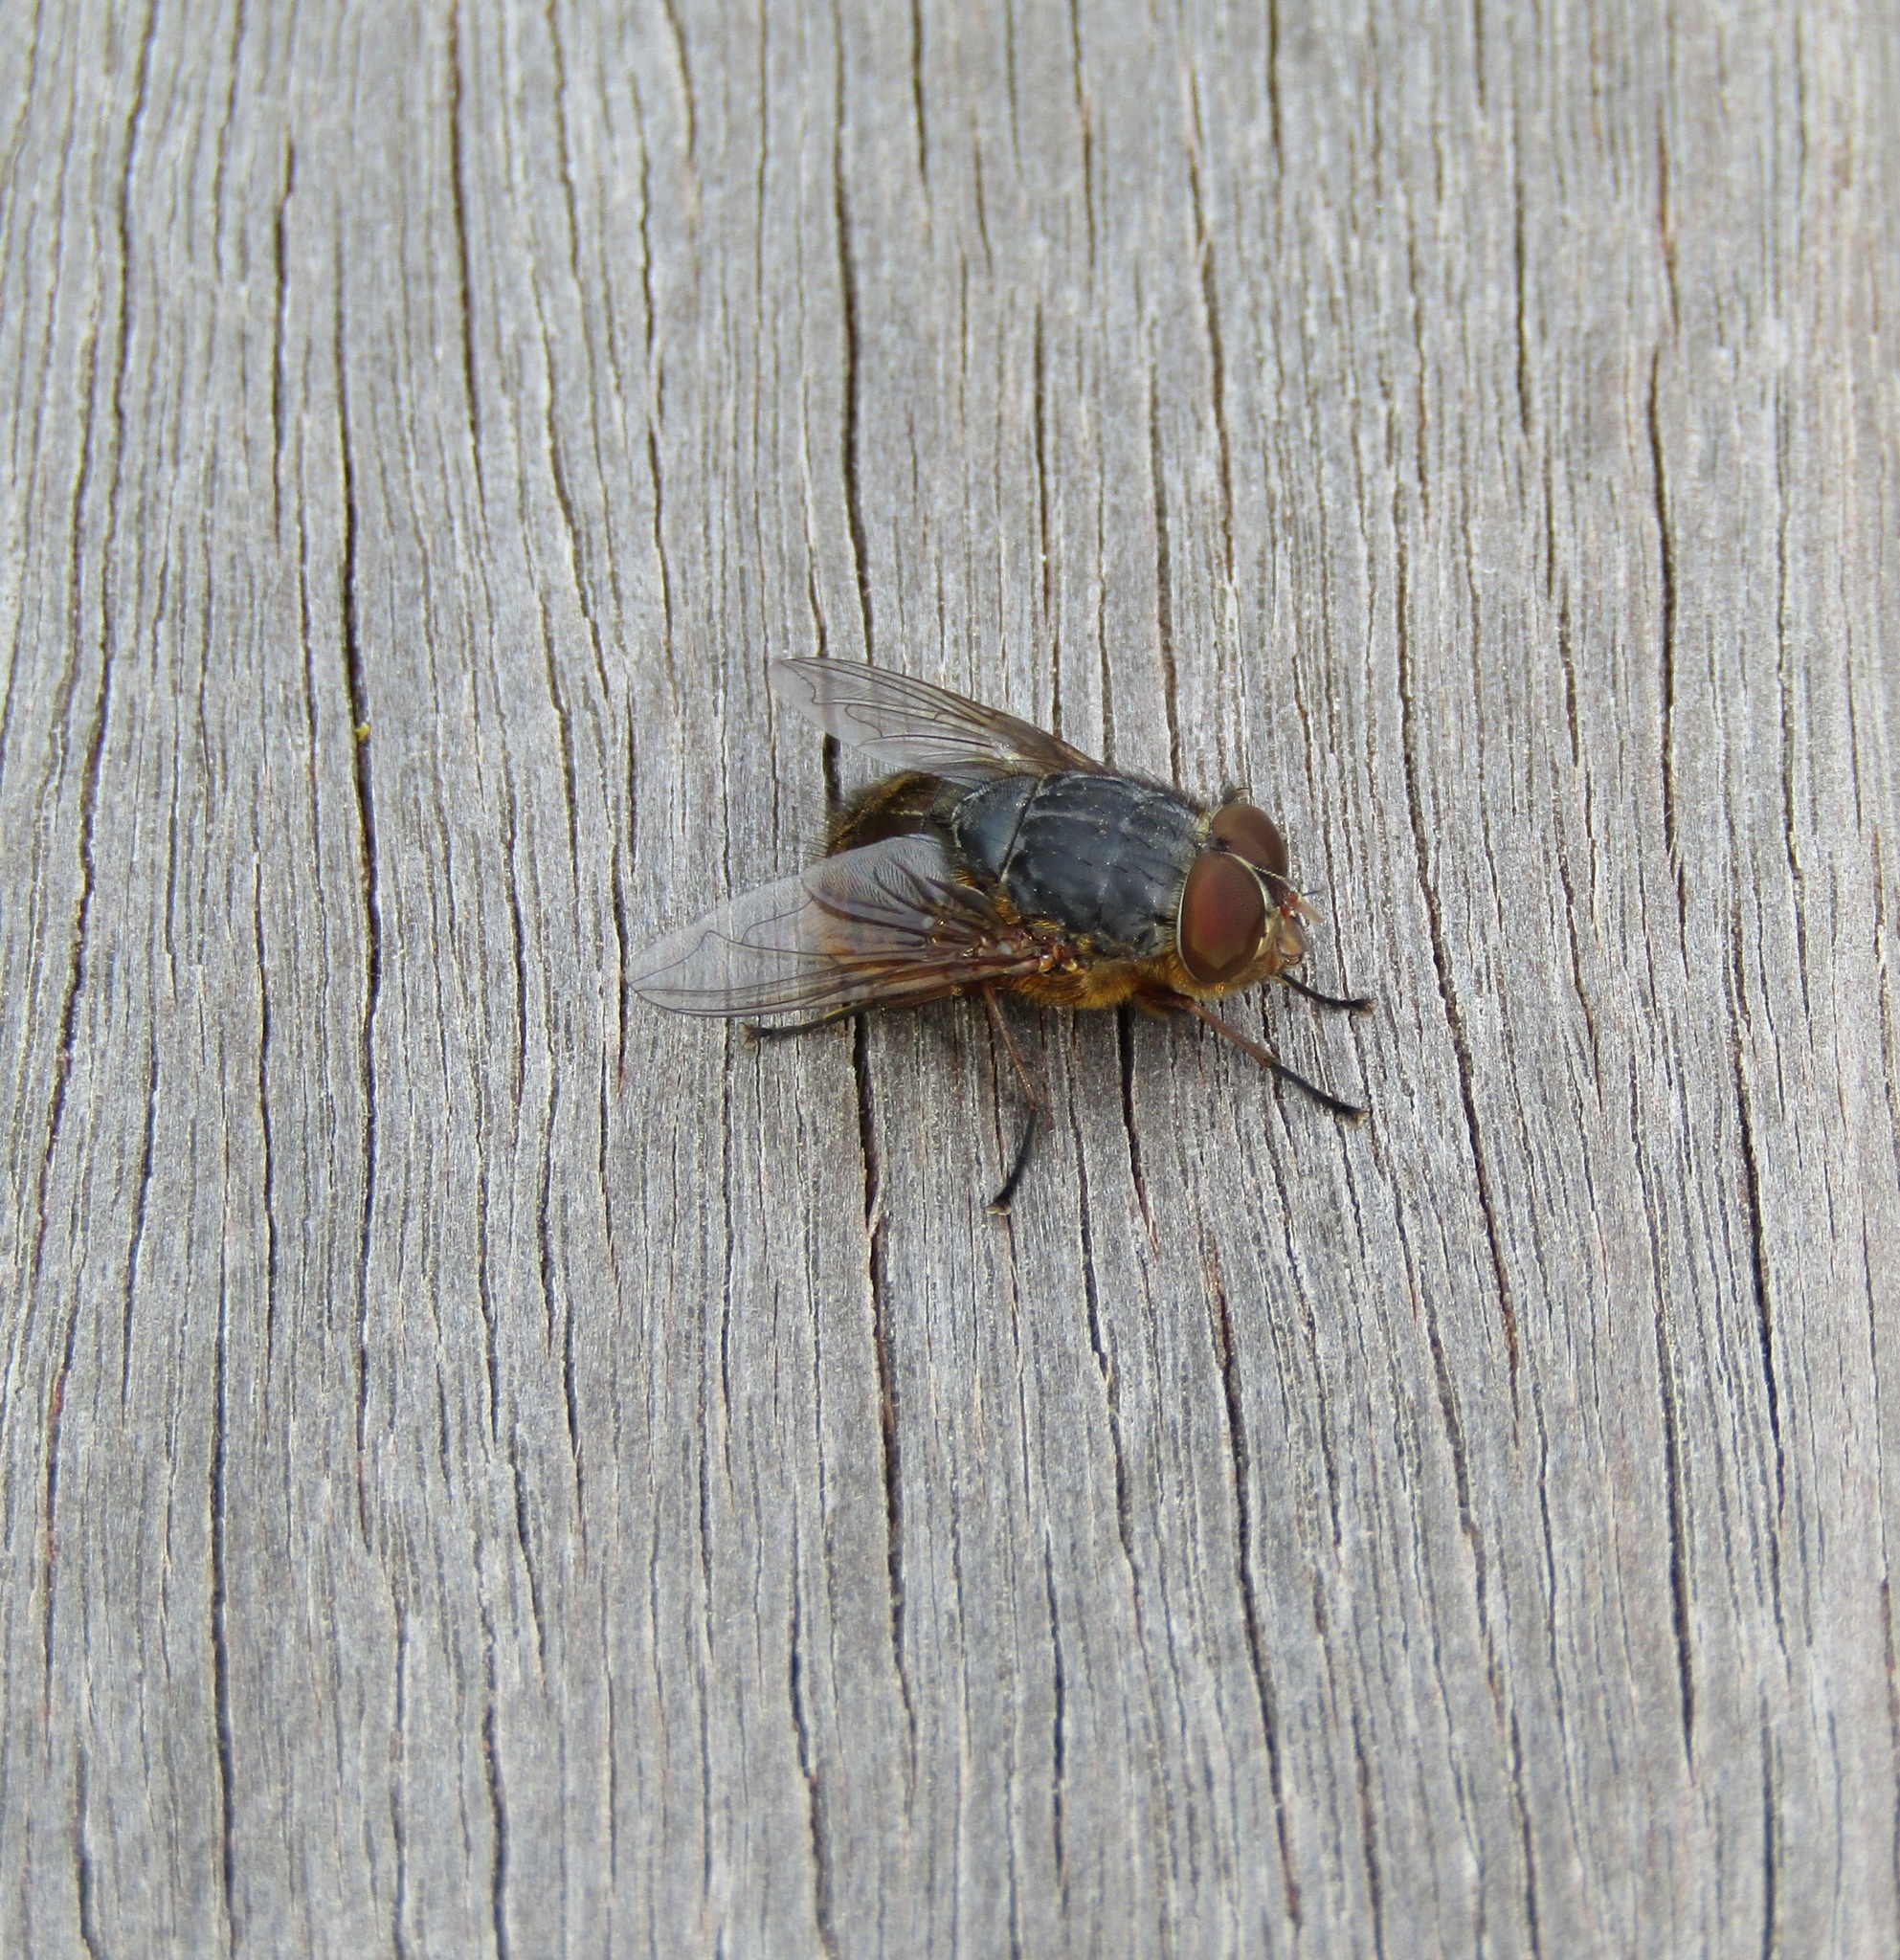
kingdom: Animalia
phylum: Arthropoda
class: Insecta
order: Diptera
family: Calliphoridae
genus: Calliphora
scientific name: Calliphora stygia
